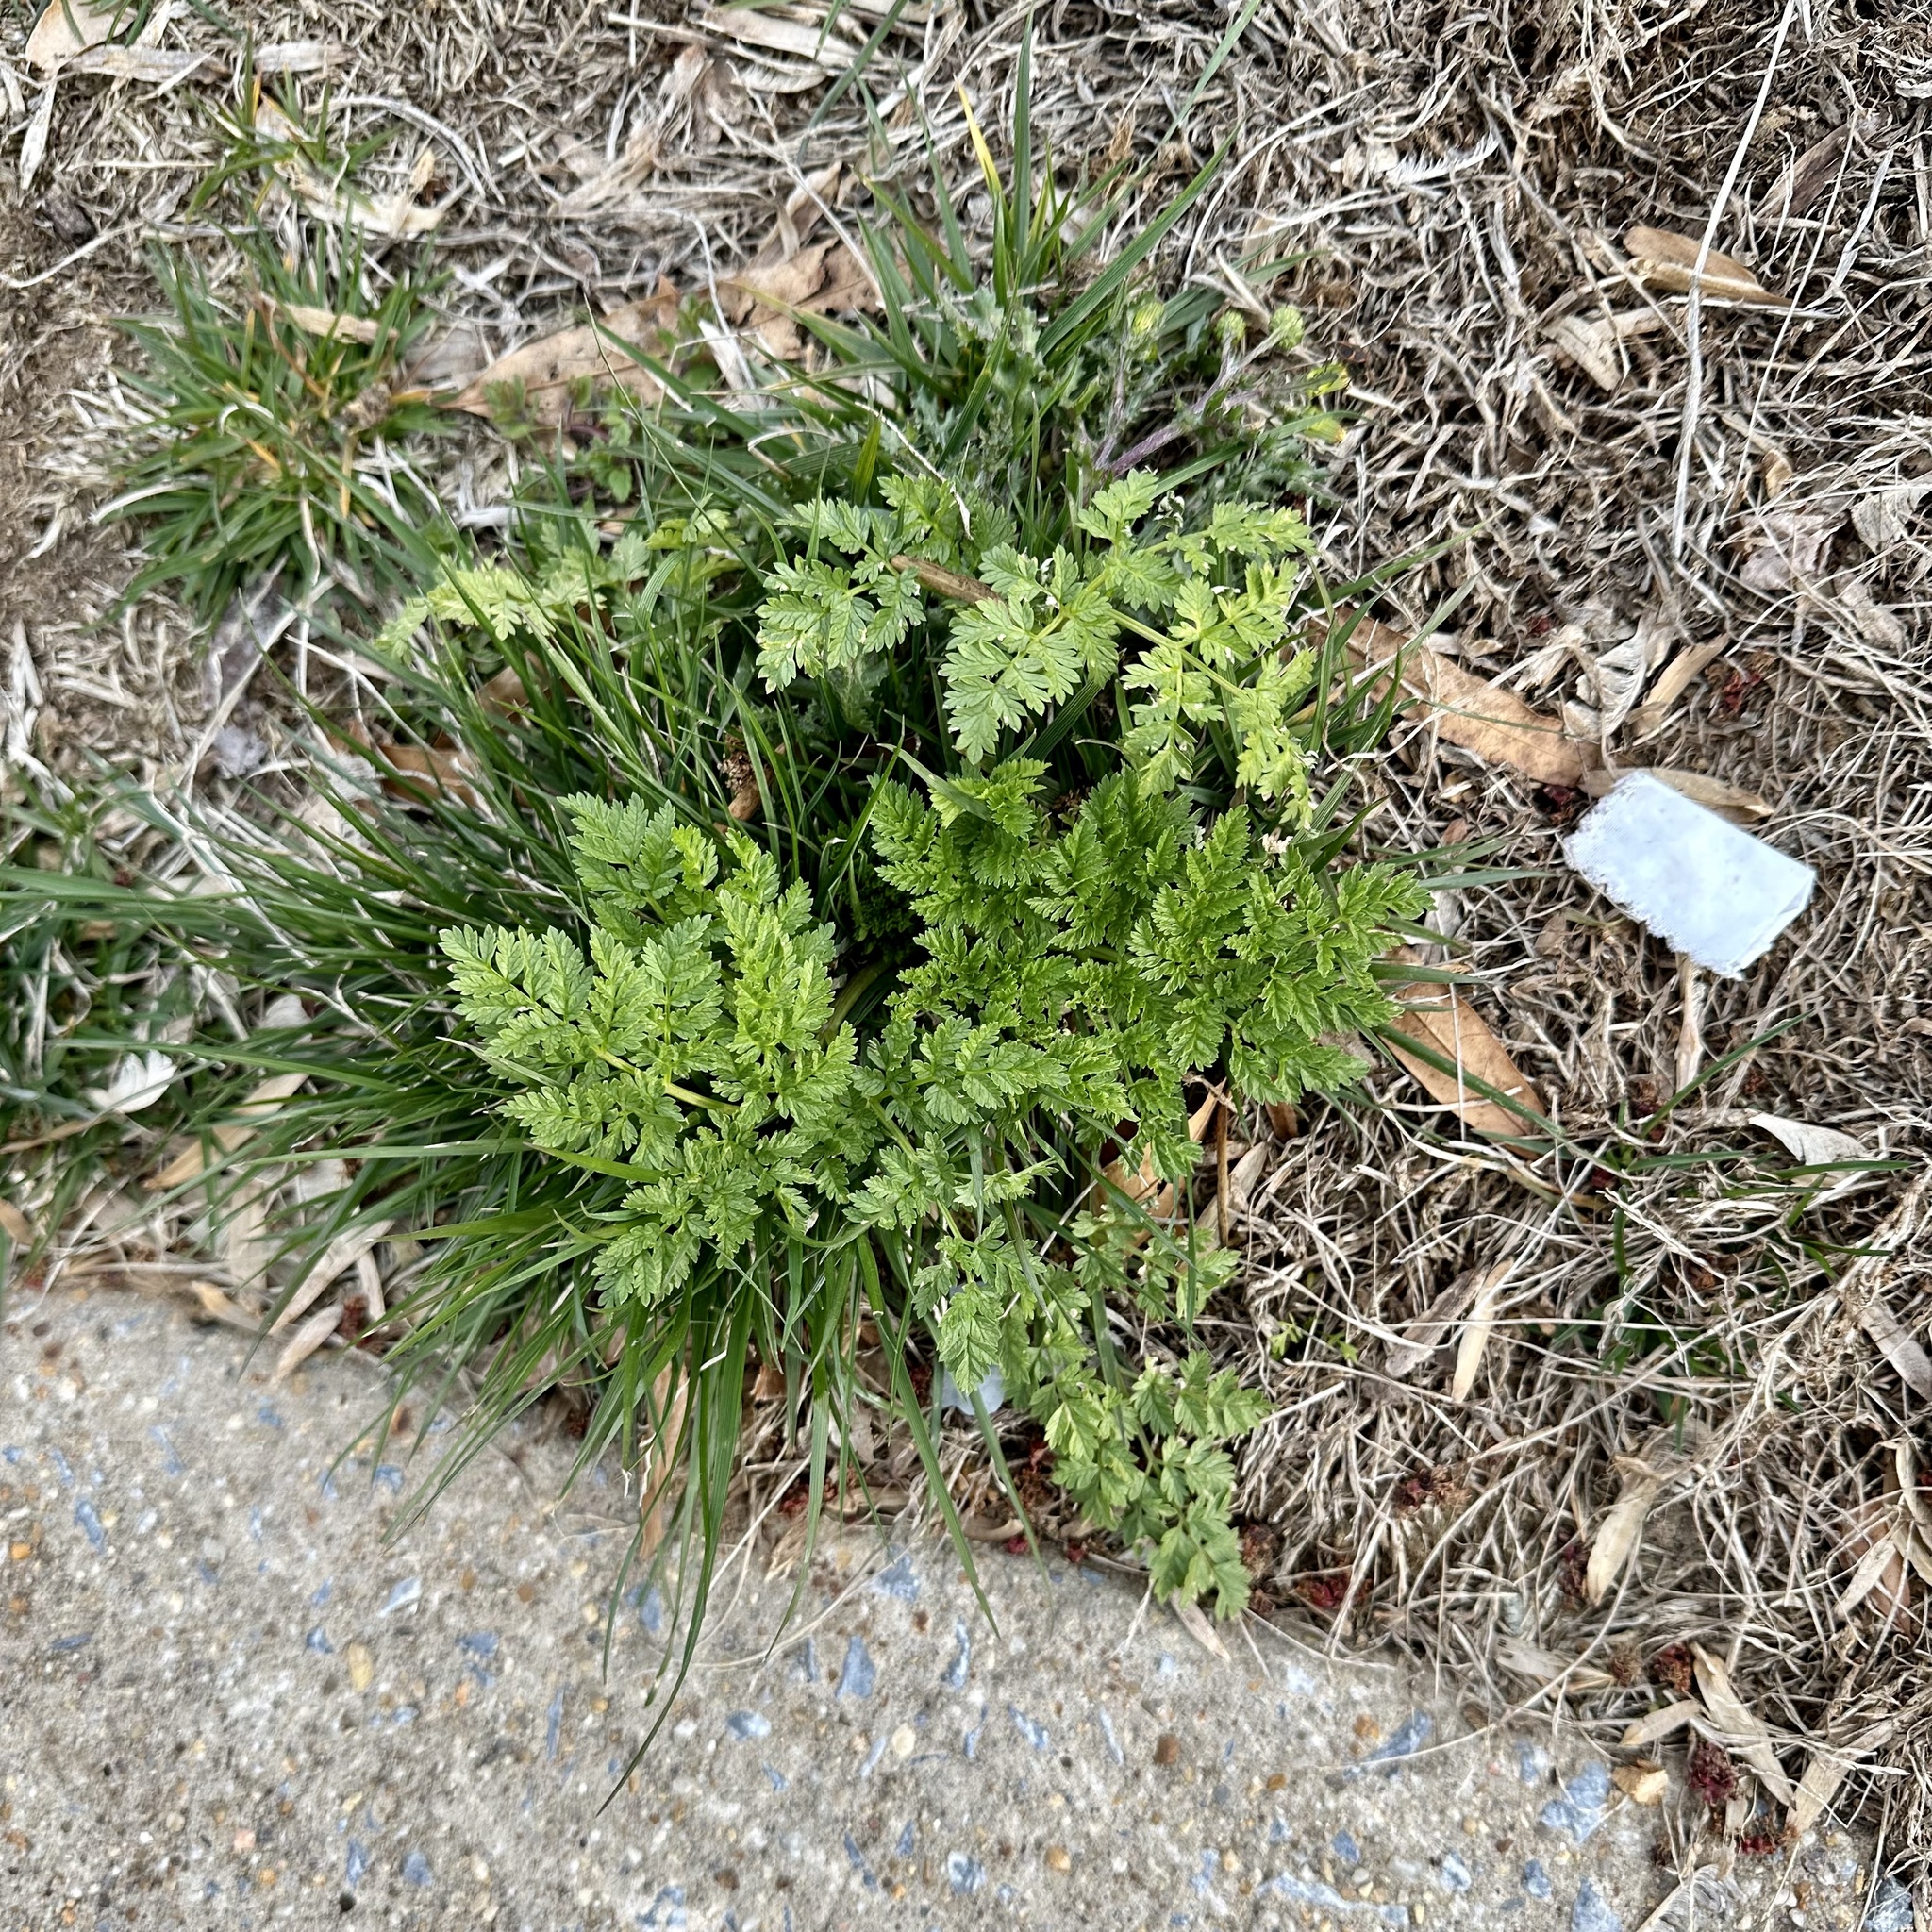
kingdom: Plantae
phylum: Tracheophyta
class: Magnoliopsida
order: Apiales
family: Apiaceae
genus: Conium
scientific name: Conium maculatum
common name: Hemlock
